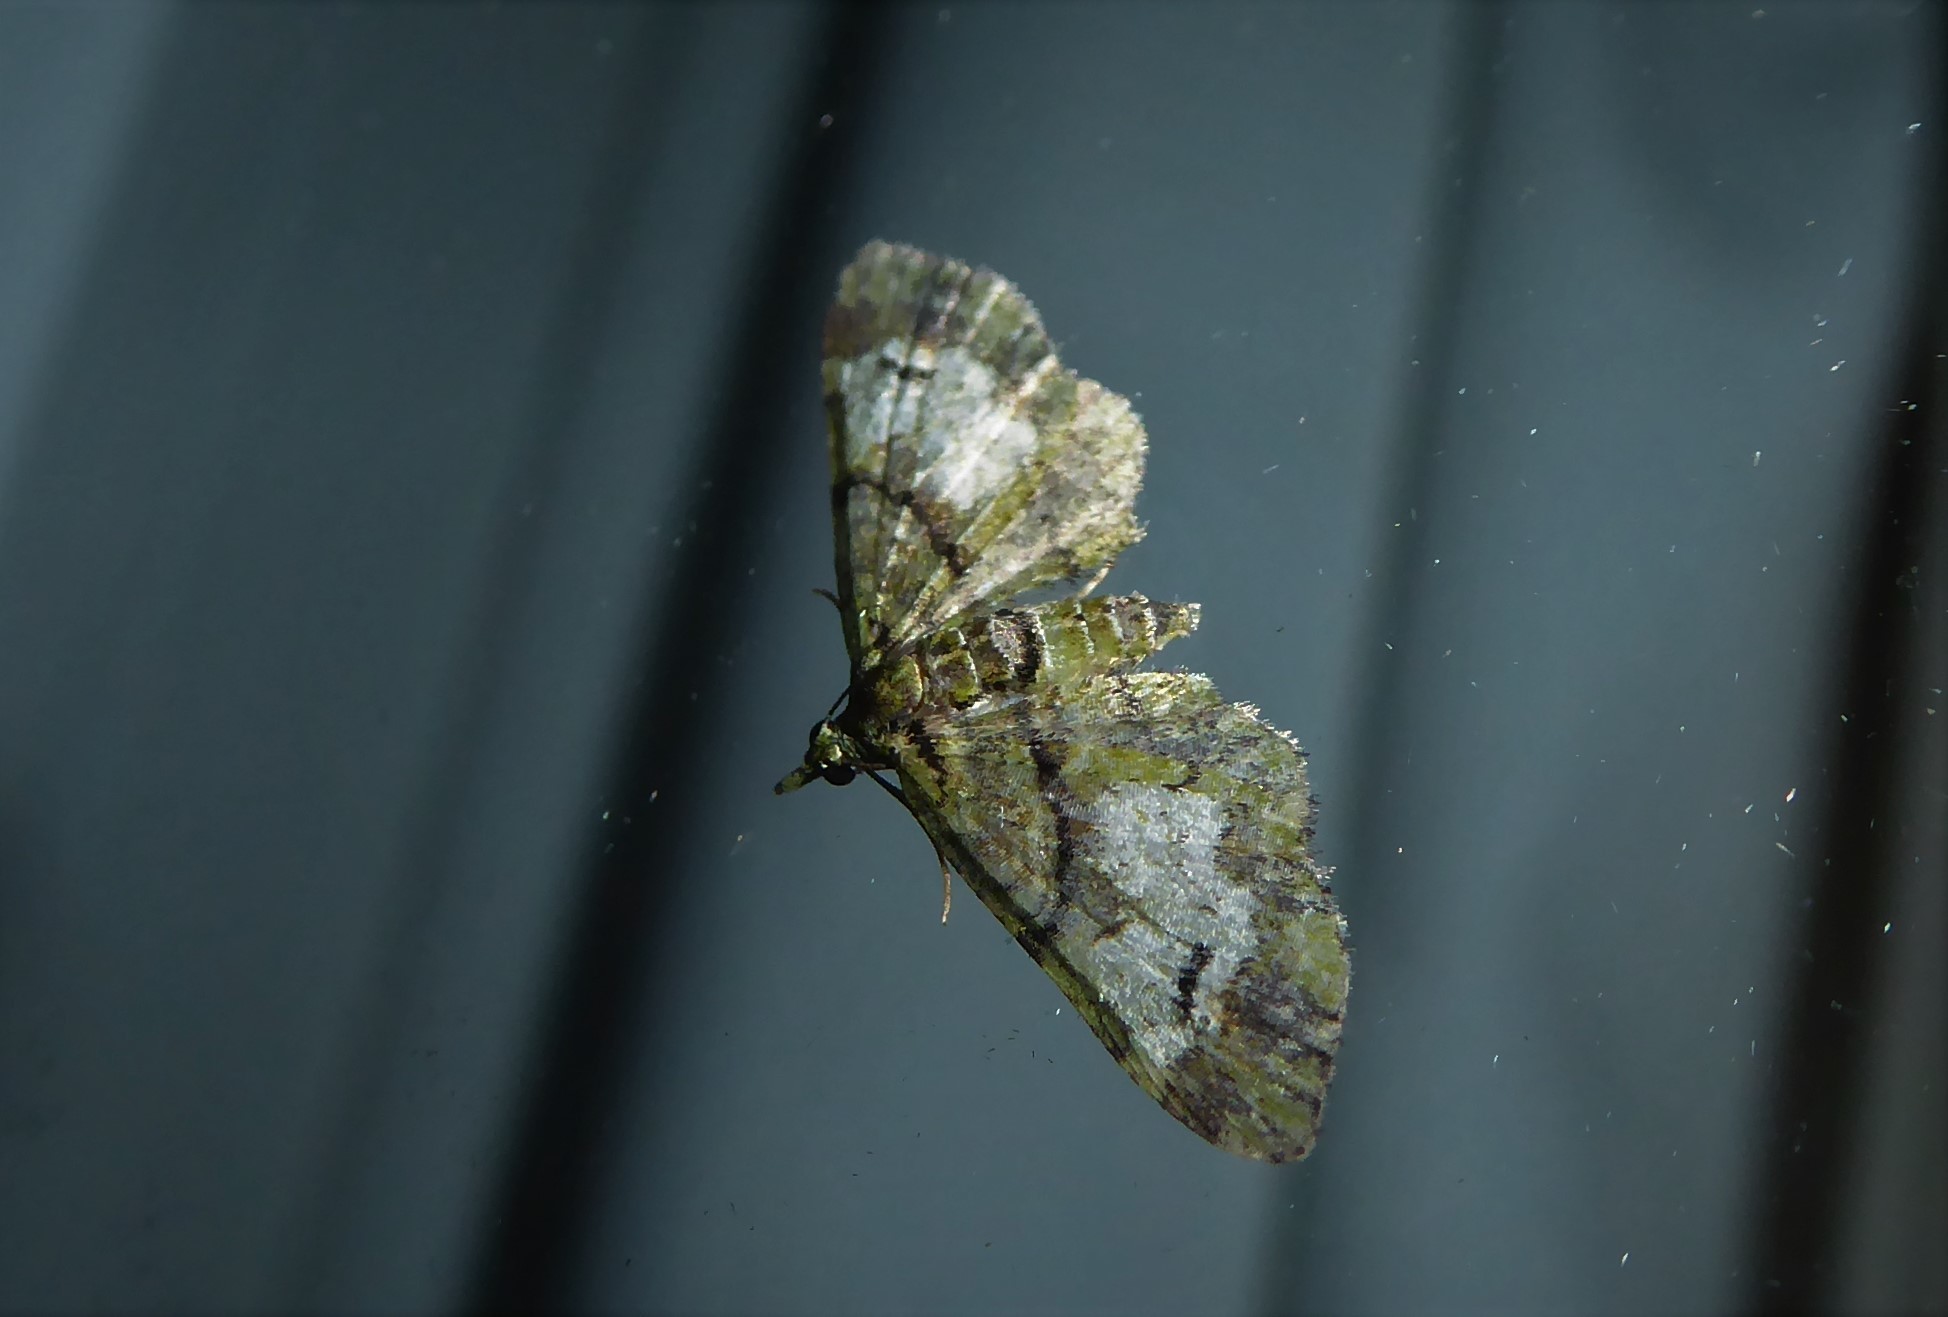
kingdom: Animalia
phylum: Arthropoda
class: Insecta
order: Lepidoptera
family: Geometridae
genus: Idaea
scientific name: Idaea mutanda
